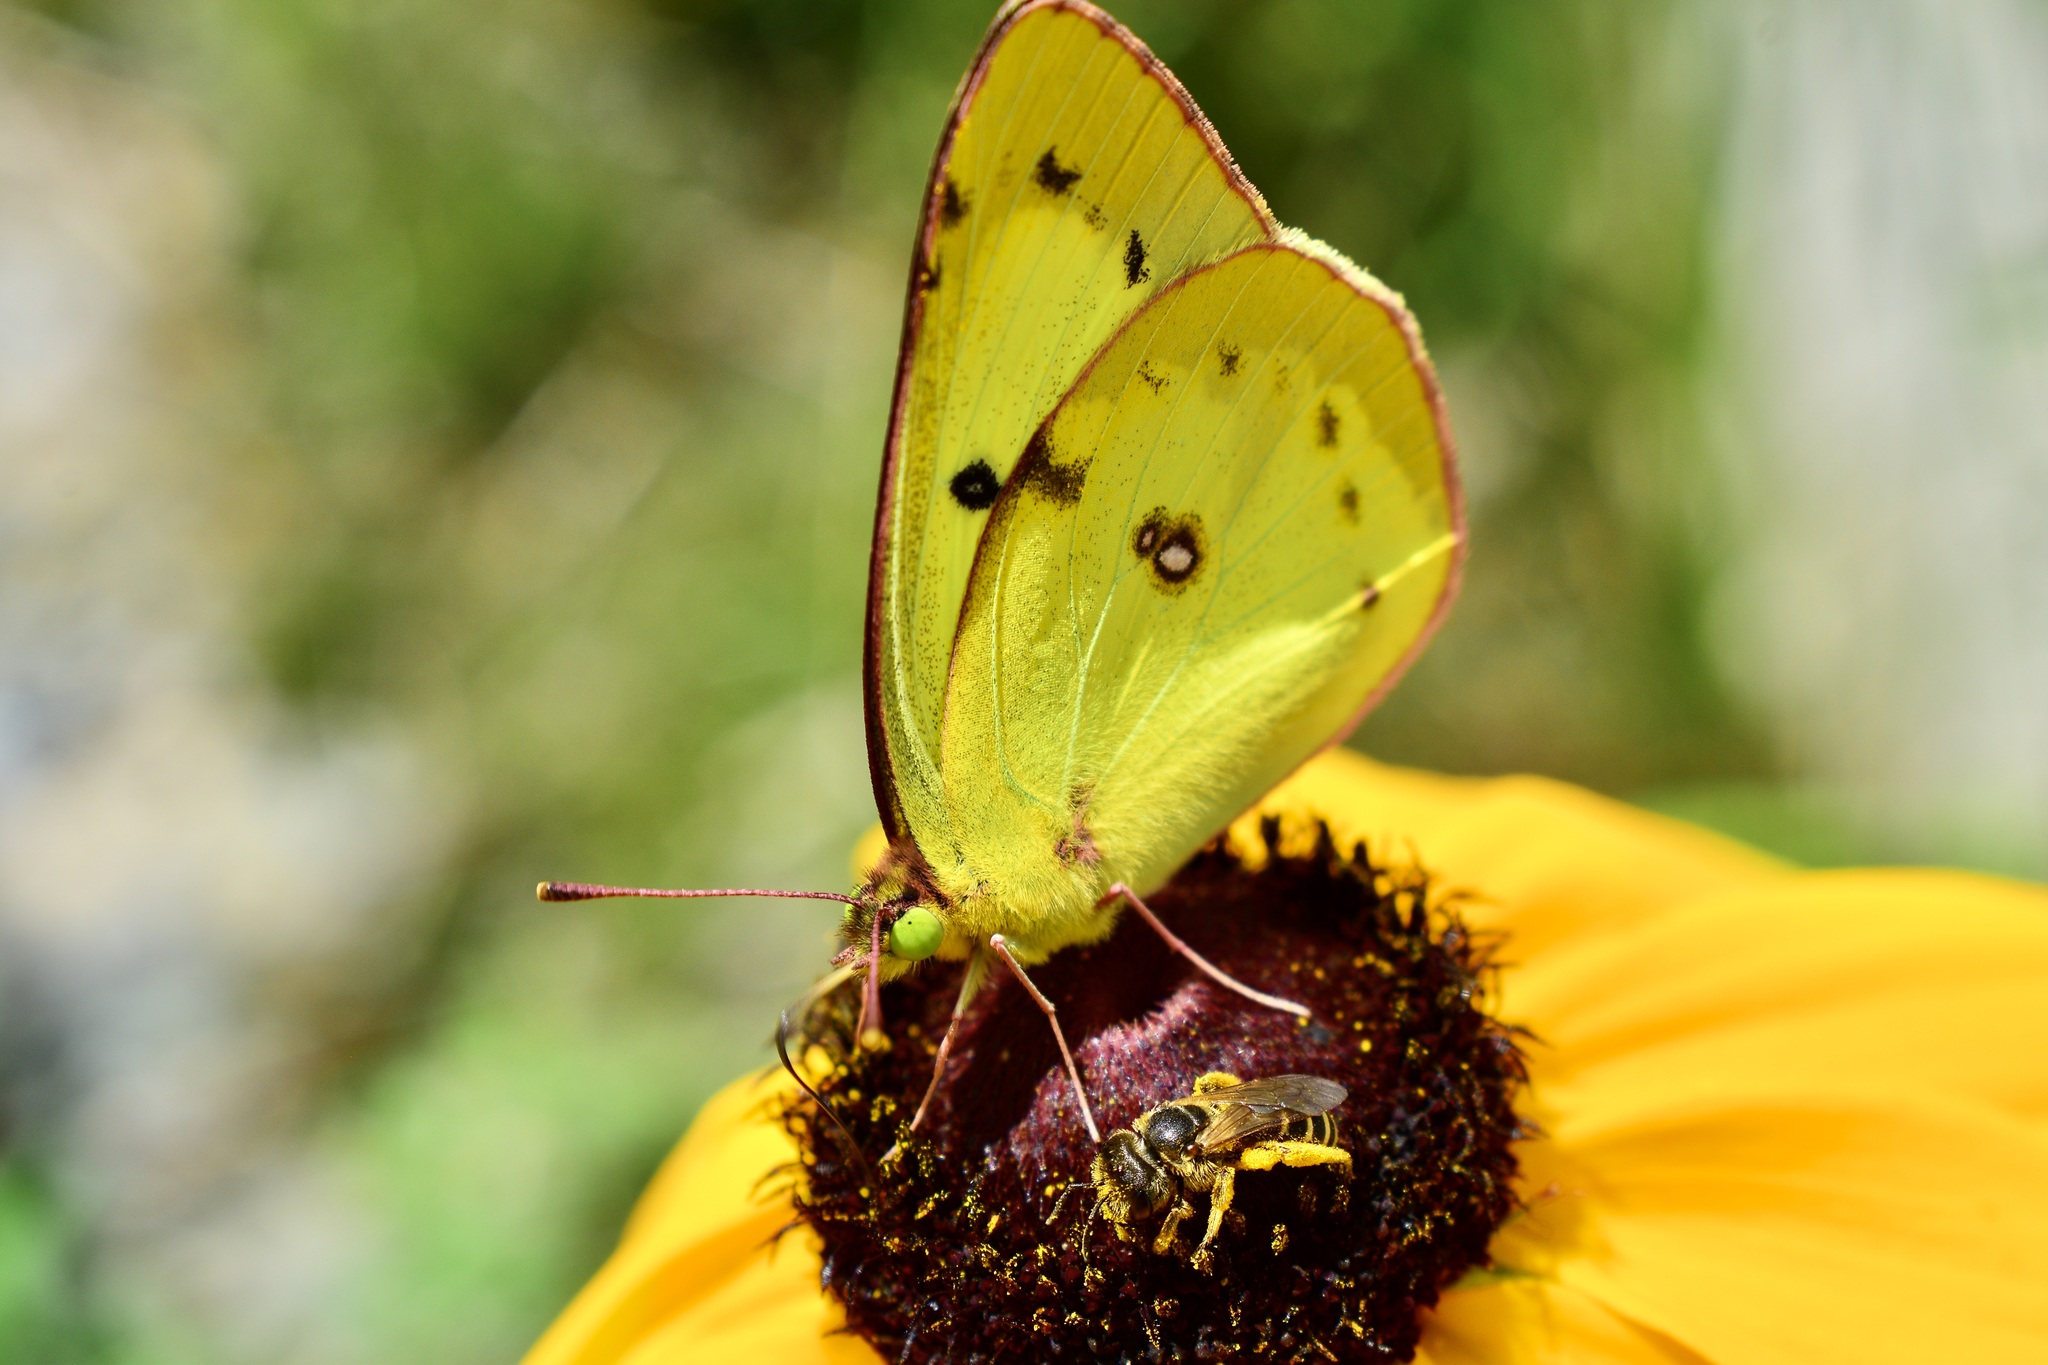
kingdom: Animalia
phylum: Arthropoda
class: Insecta
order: Lepidoptera
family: Pieridae
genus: Colias
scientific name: Colias philodice
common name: Clouded sulphur
